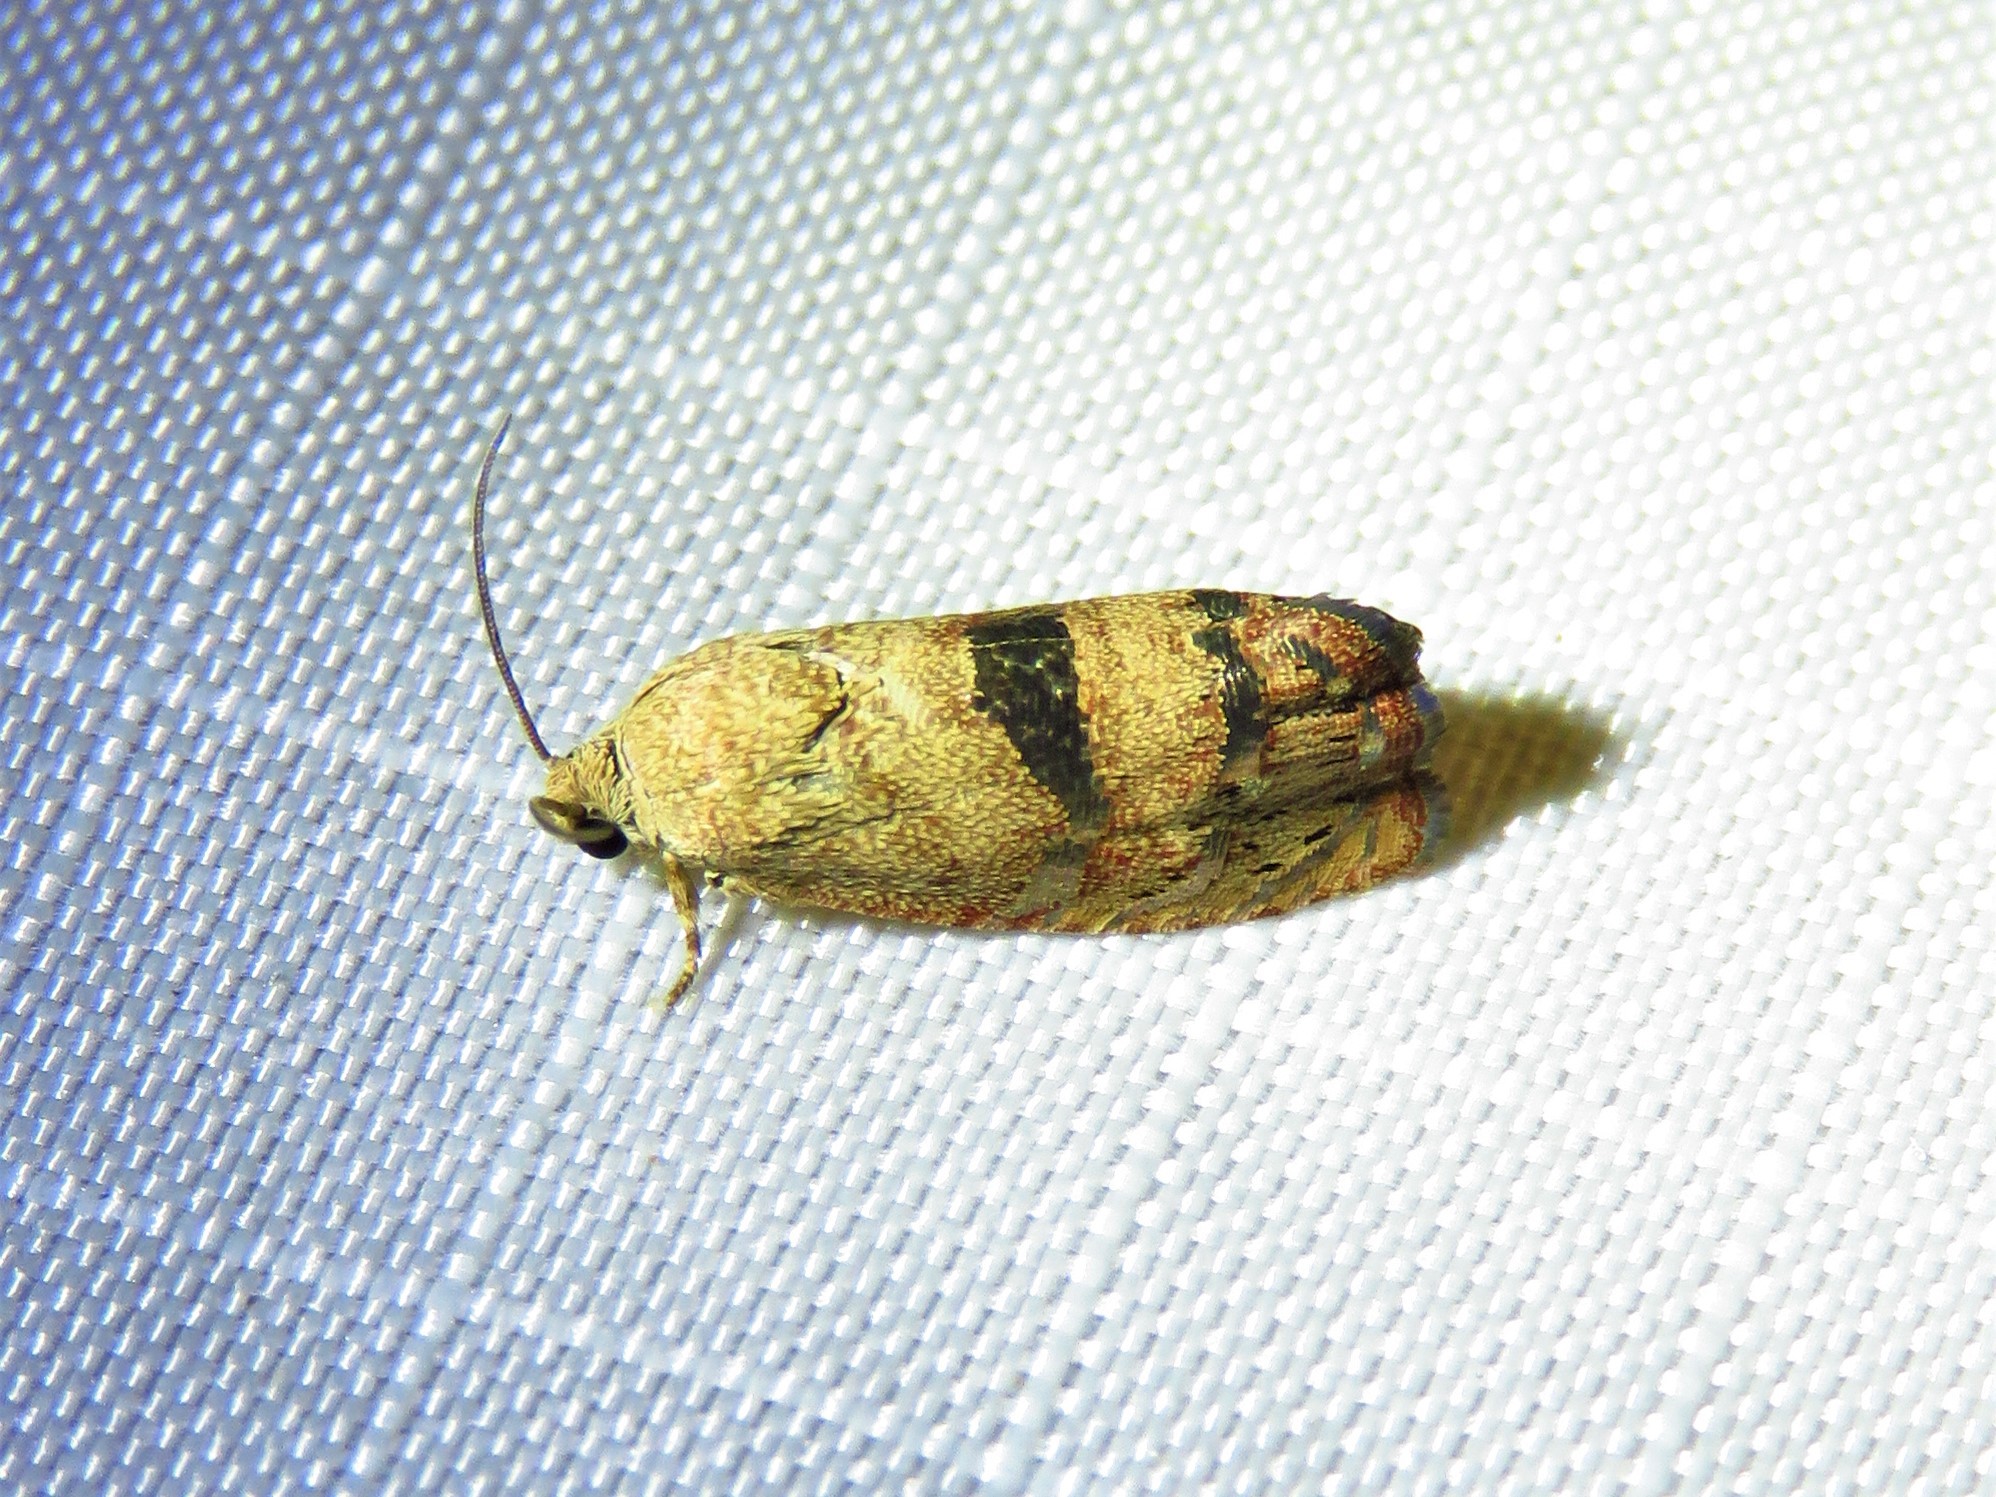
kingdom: Animalia
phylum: Arthropoda
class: Insecta
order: Lepidoptera
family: Tortricidae
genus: Cydia
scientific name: Cydia latiferreana
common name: Filbertworm moth
